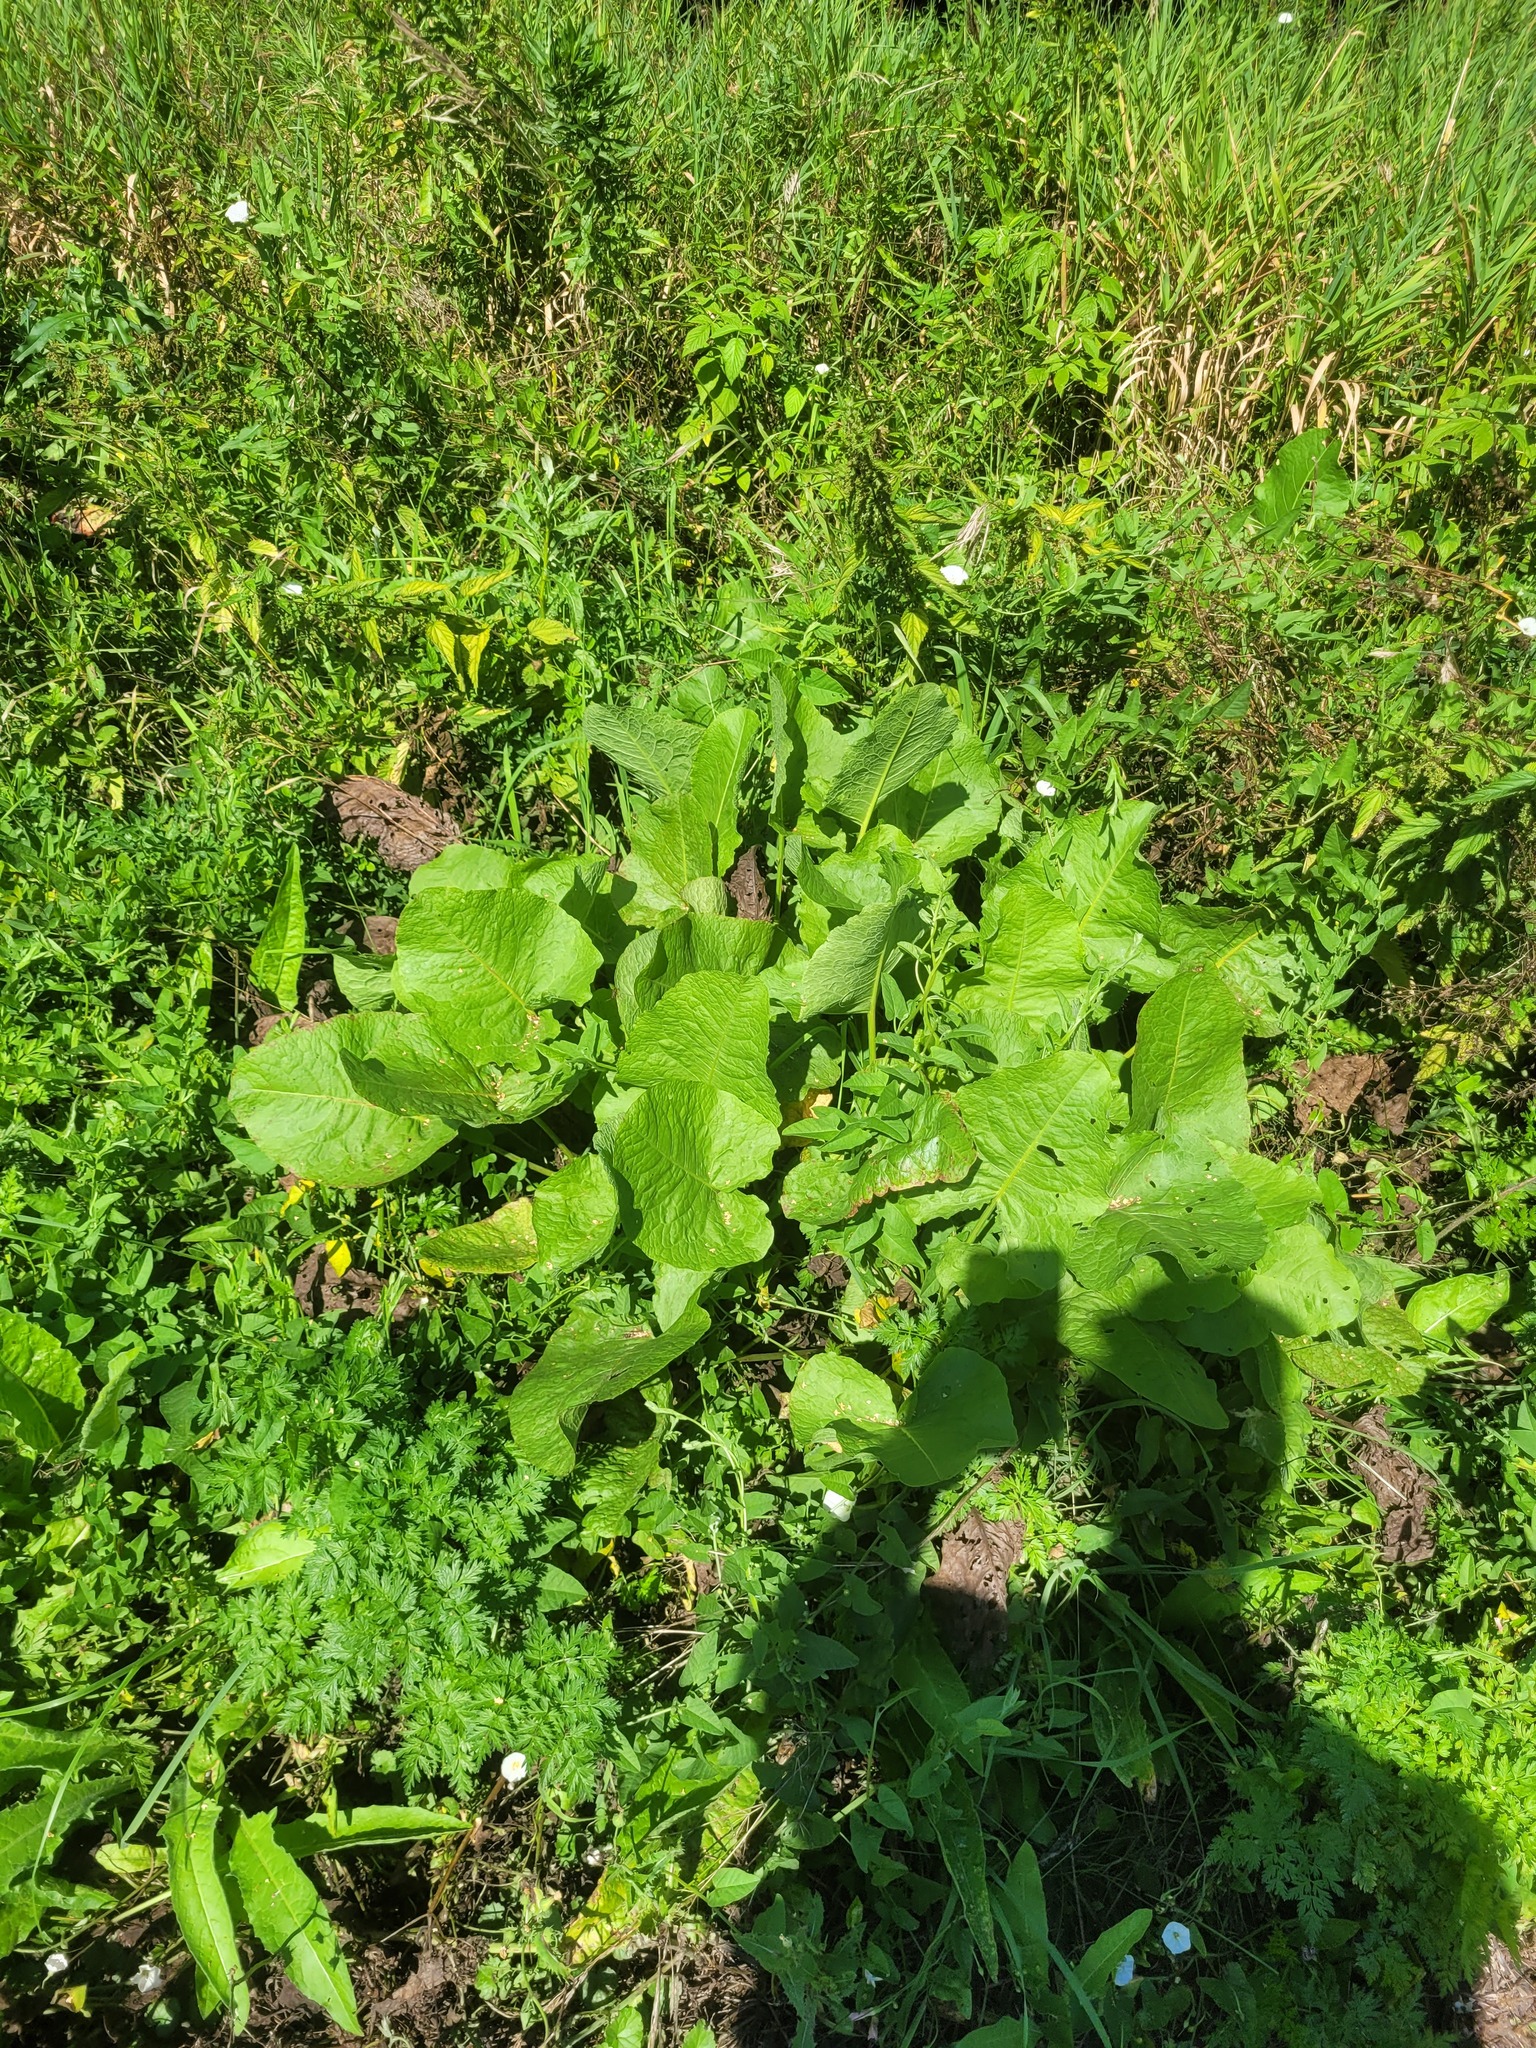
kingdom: Plantae
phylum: Tracheophyta
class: Magnoliopsida
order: Caryophyllales
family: Polygonaceae
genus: Rumex
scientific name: Rumex confertus
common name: Russian dock
